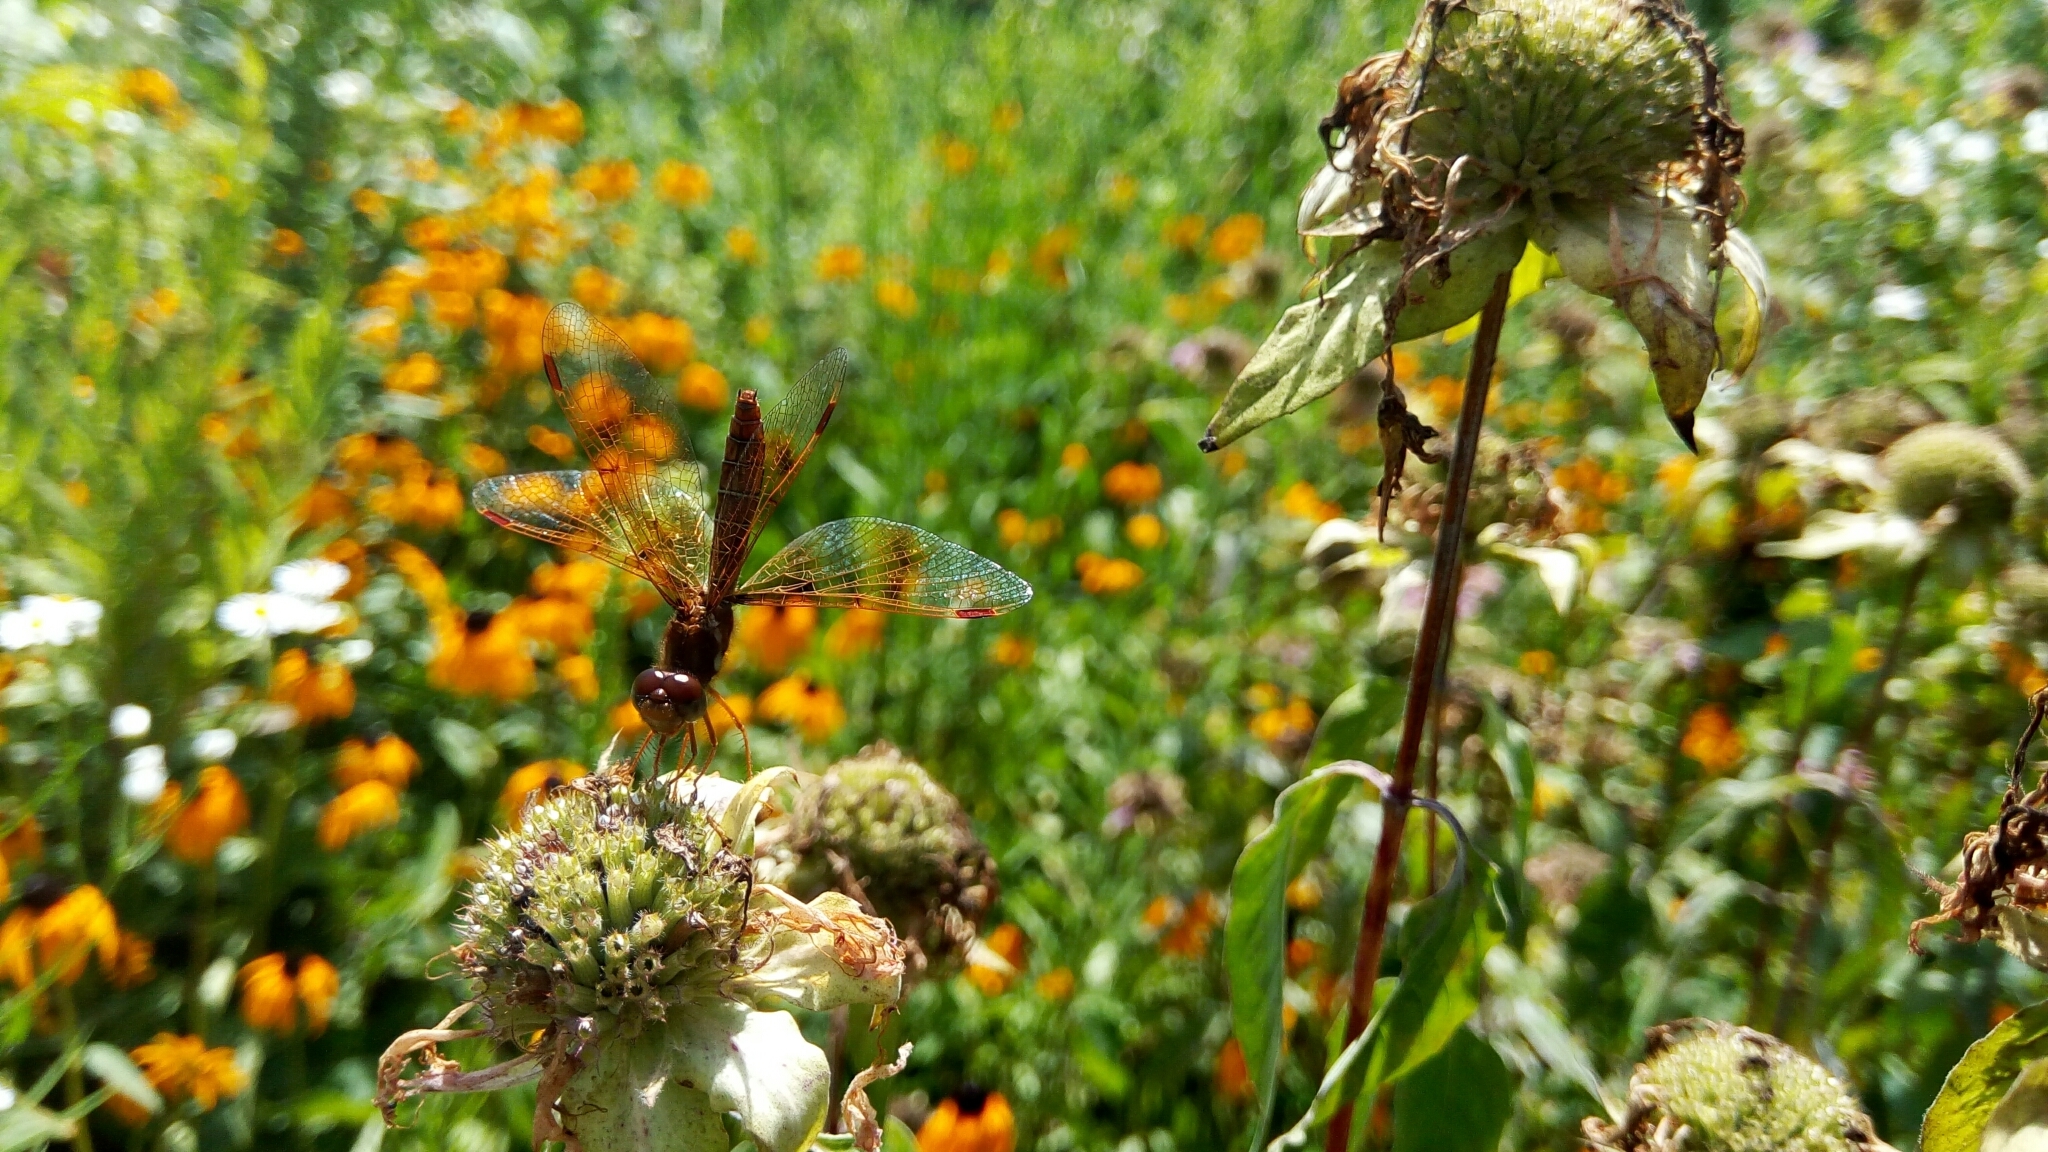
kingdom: Animalia
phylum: Arthropoda
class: Insecta
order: Odonata
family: Libellulidae
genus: Perithemis
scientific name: Perithemis tenera
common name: Eastern amberwing
